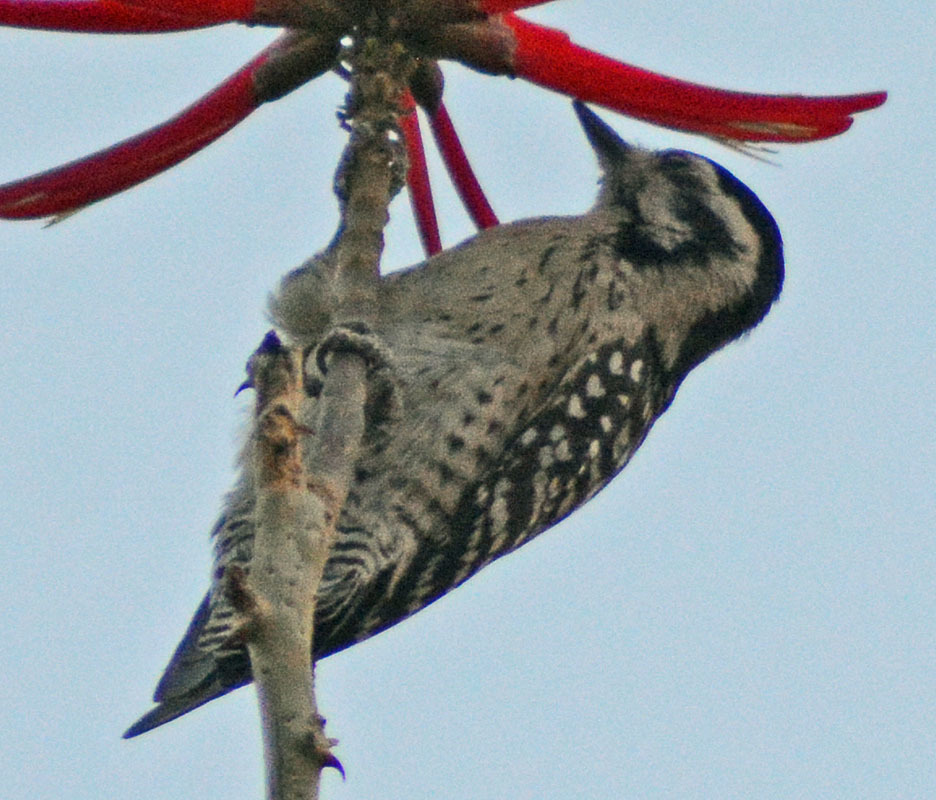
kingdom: Animalia
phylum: Chordata
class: Aves
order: Piciformes
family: Picidae
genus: Dryobates
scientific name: Dryobates scalaris
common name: Ladder-backed woodpecker
